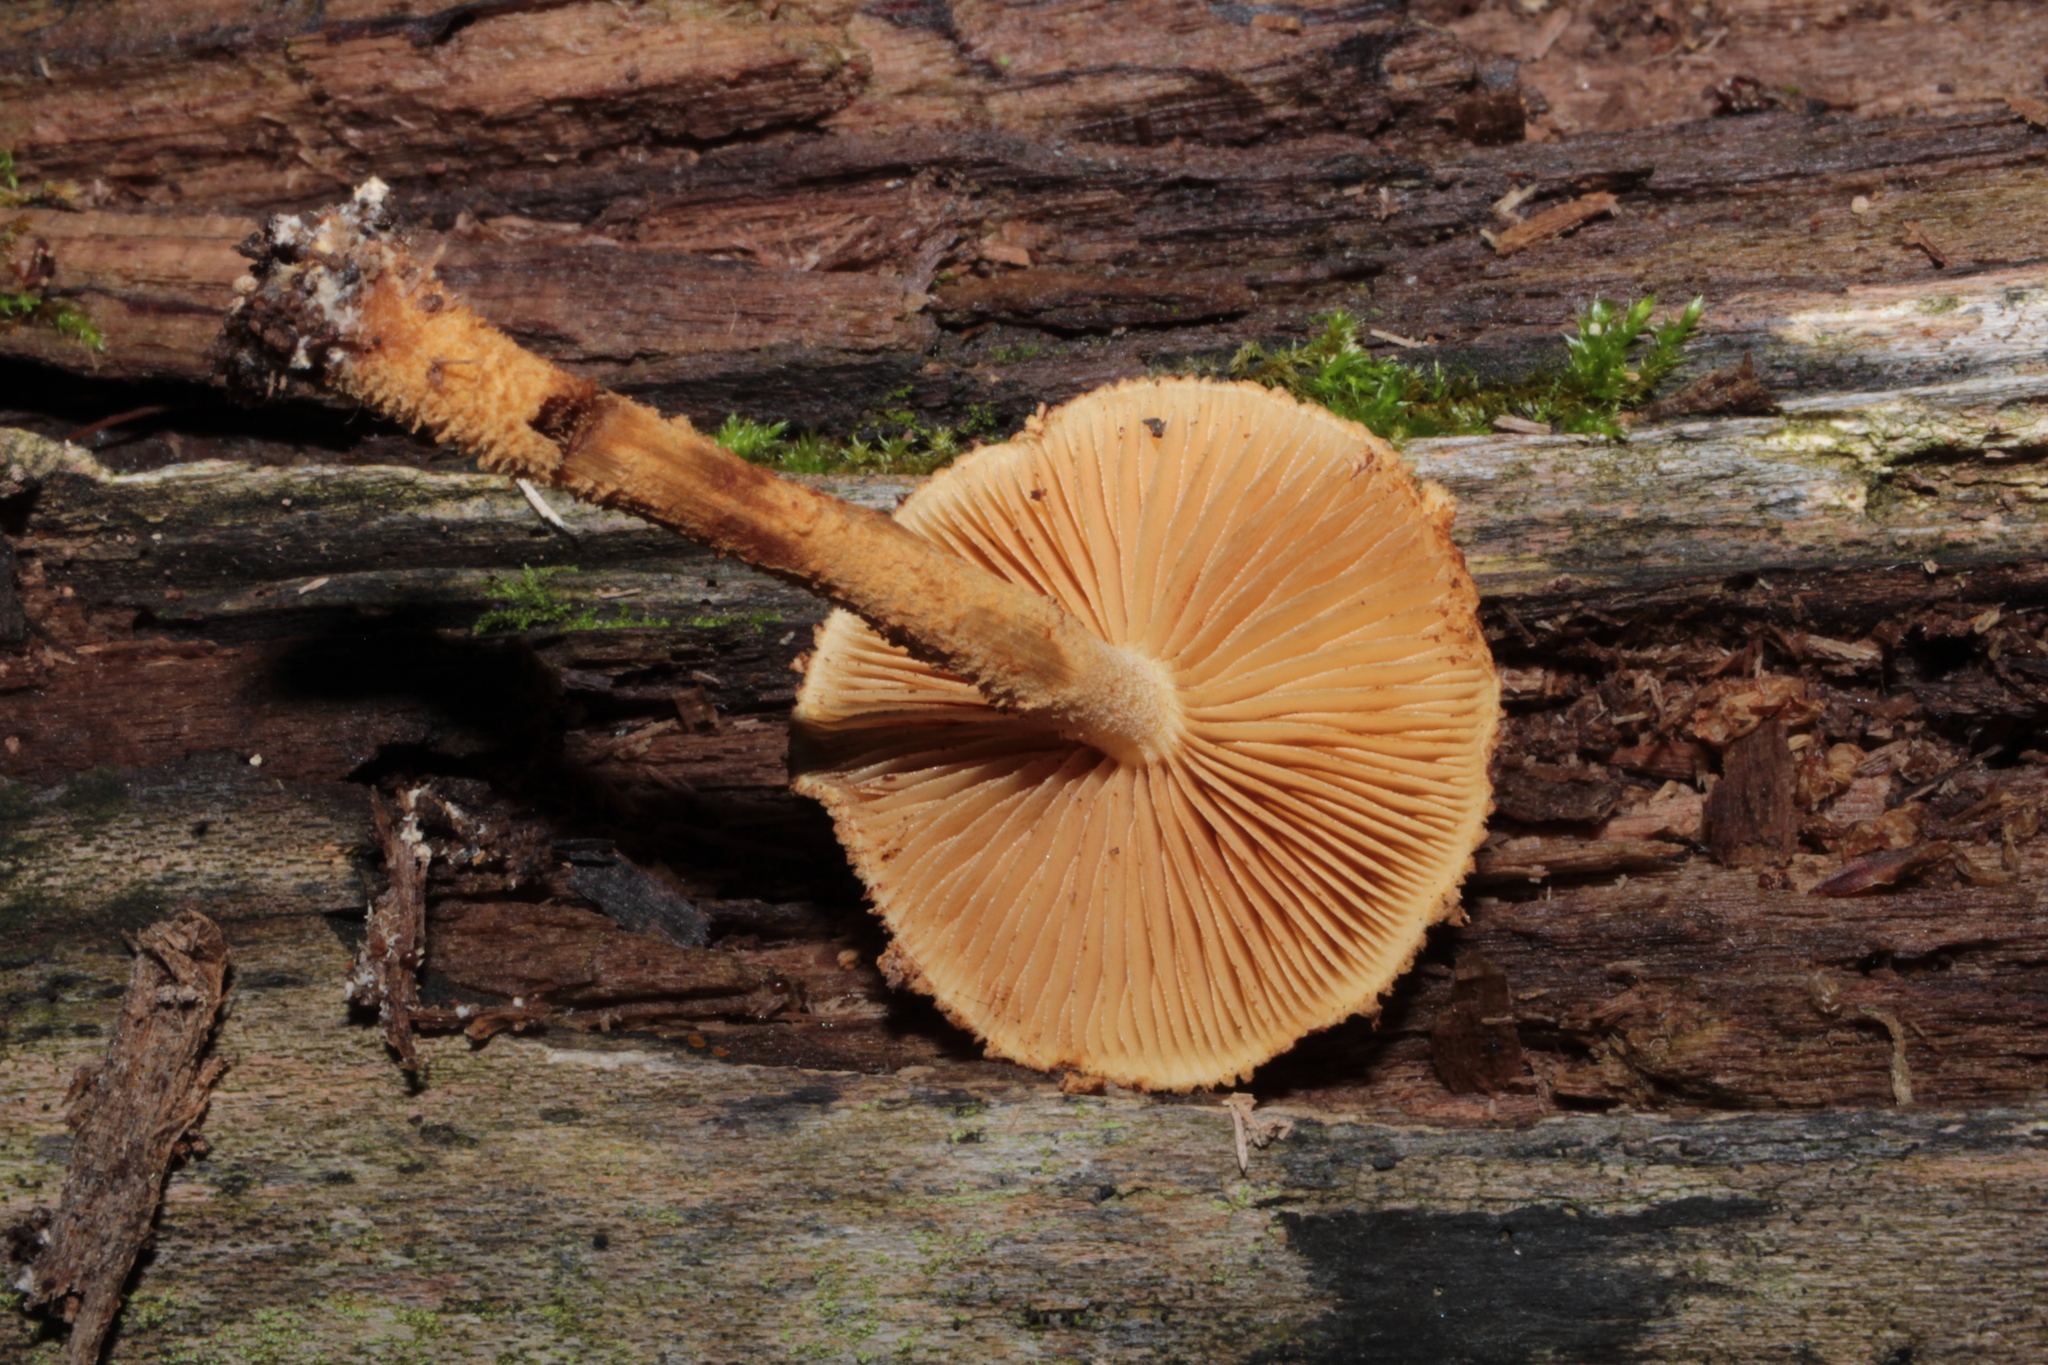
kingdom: Fungi
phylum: Basidiomycota
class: Agaricomycetes
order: Agaricales
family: Tubariaceae
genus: Flammulaster
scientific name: Flammulaster erinaceellus
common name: Powder-scale pholiota
